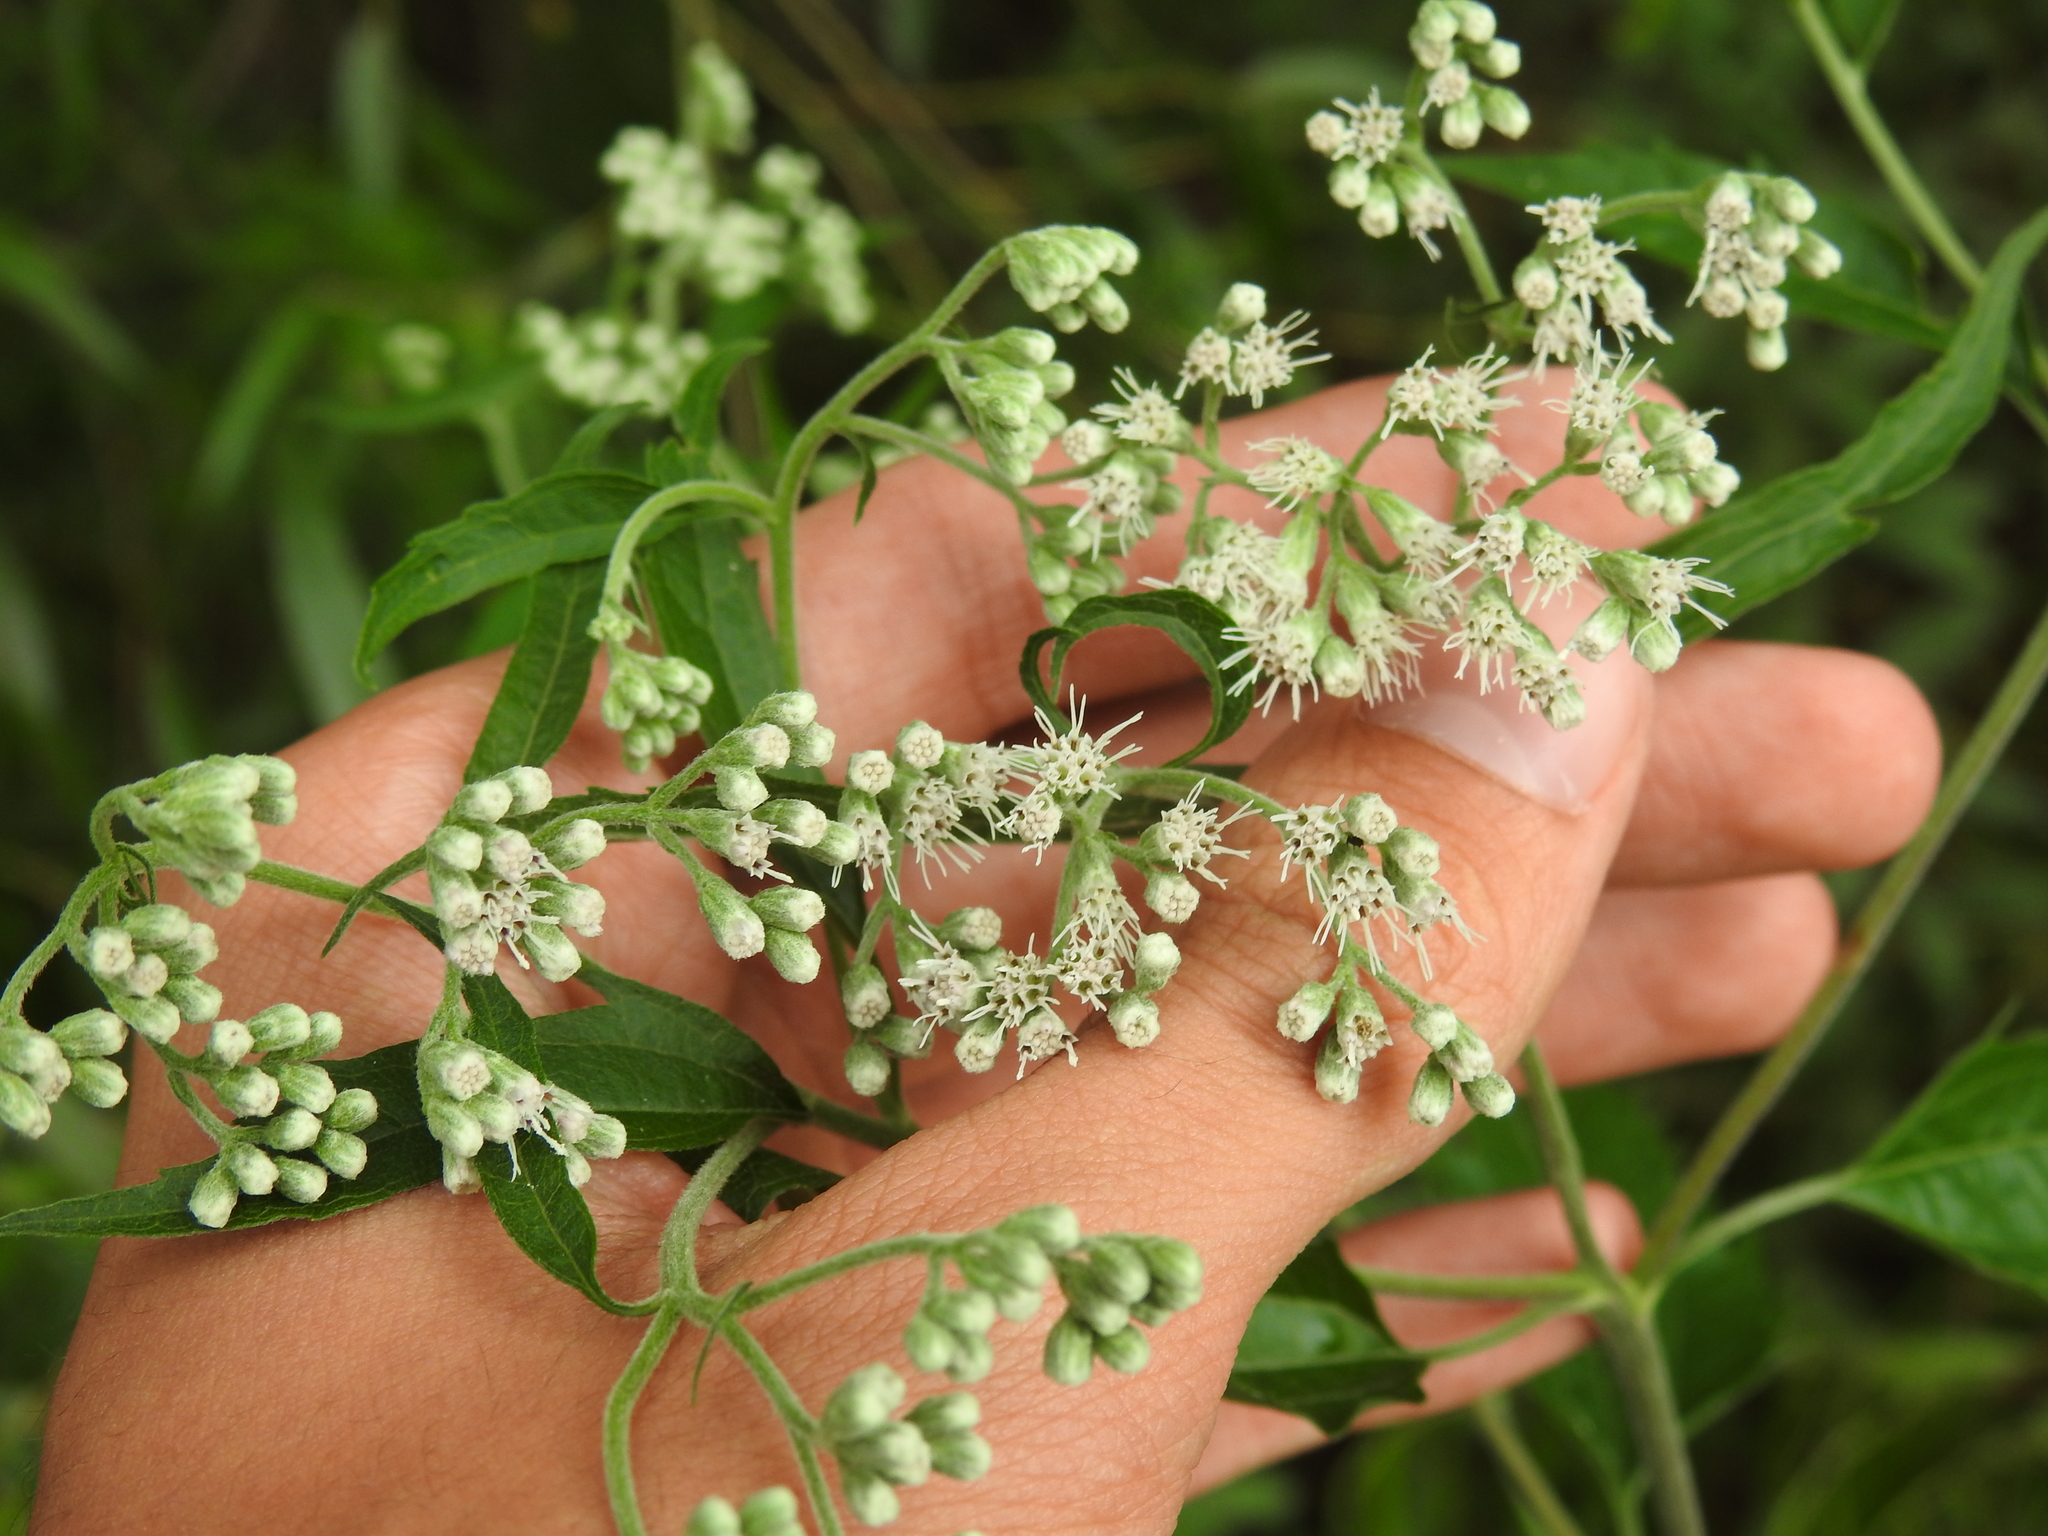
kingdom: Plantae
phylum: Tracheophyta
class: Magnoliopsida
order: Asterales
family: Asteraceae
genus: Eupatorium
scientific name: Eupatorium serotinum
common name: Late boneset
